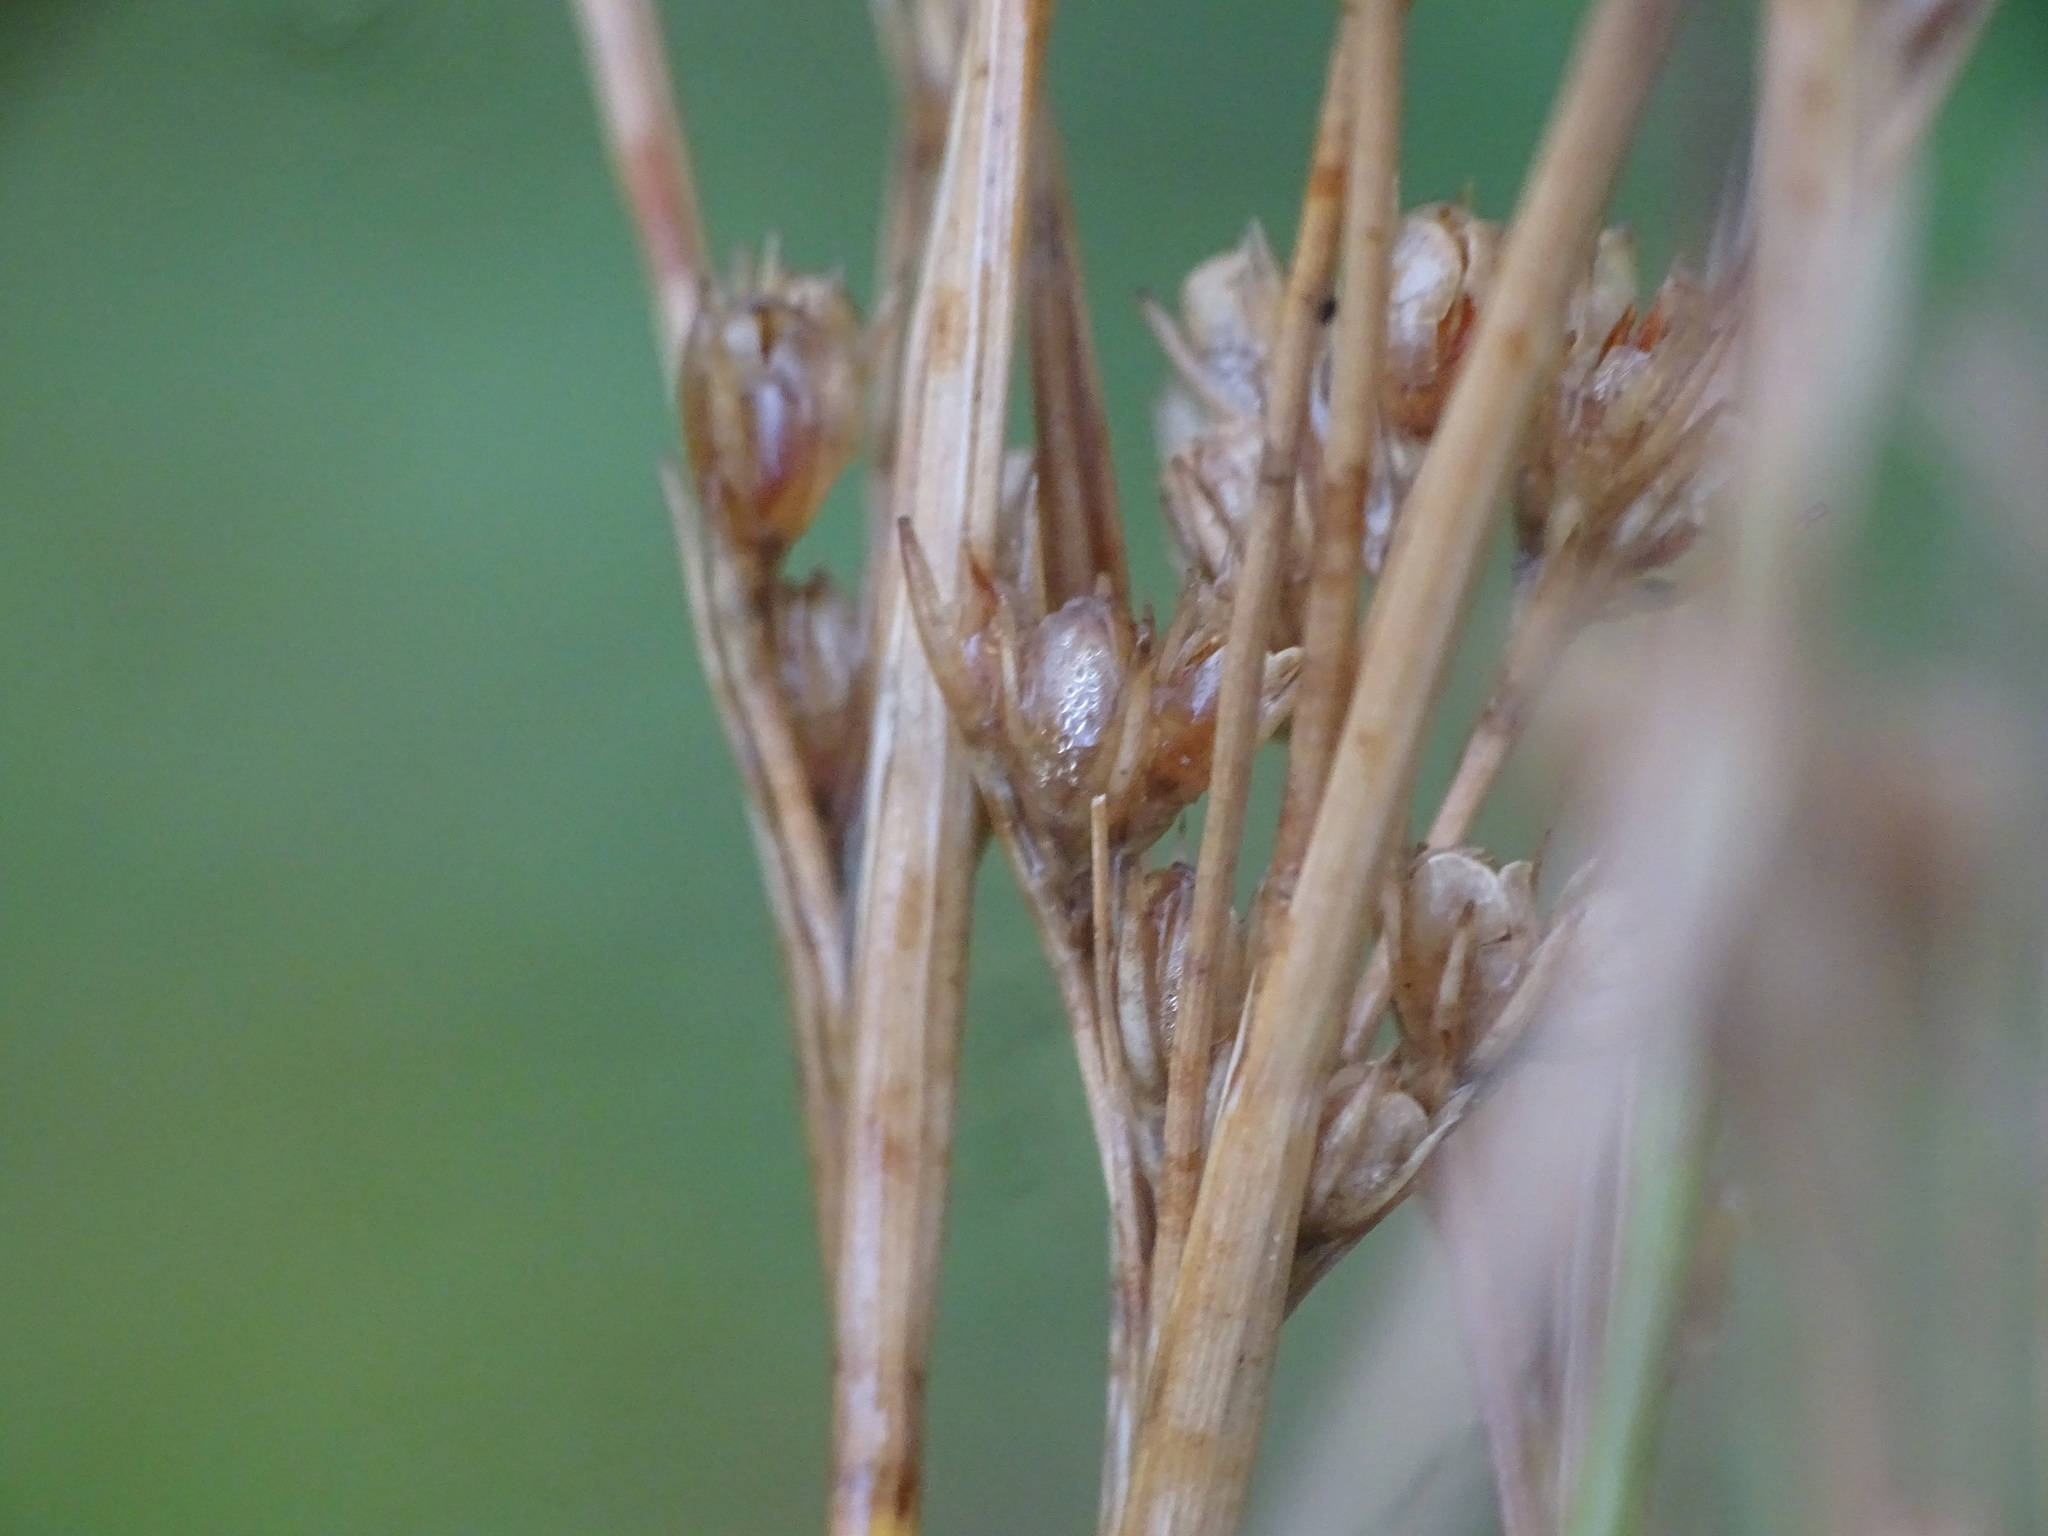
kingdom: Plantae
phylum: Tracheophyta
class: Liliopsida
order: Poales
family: Juncaceae
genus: Juncus
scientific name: Juncus tenuis
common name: Slender rush
